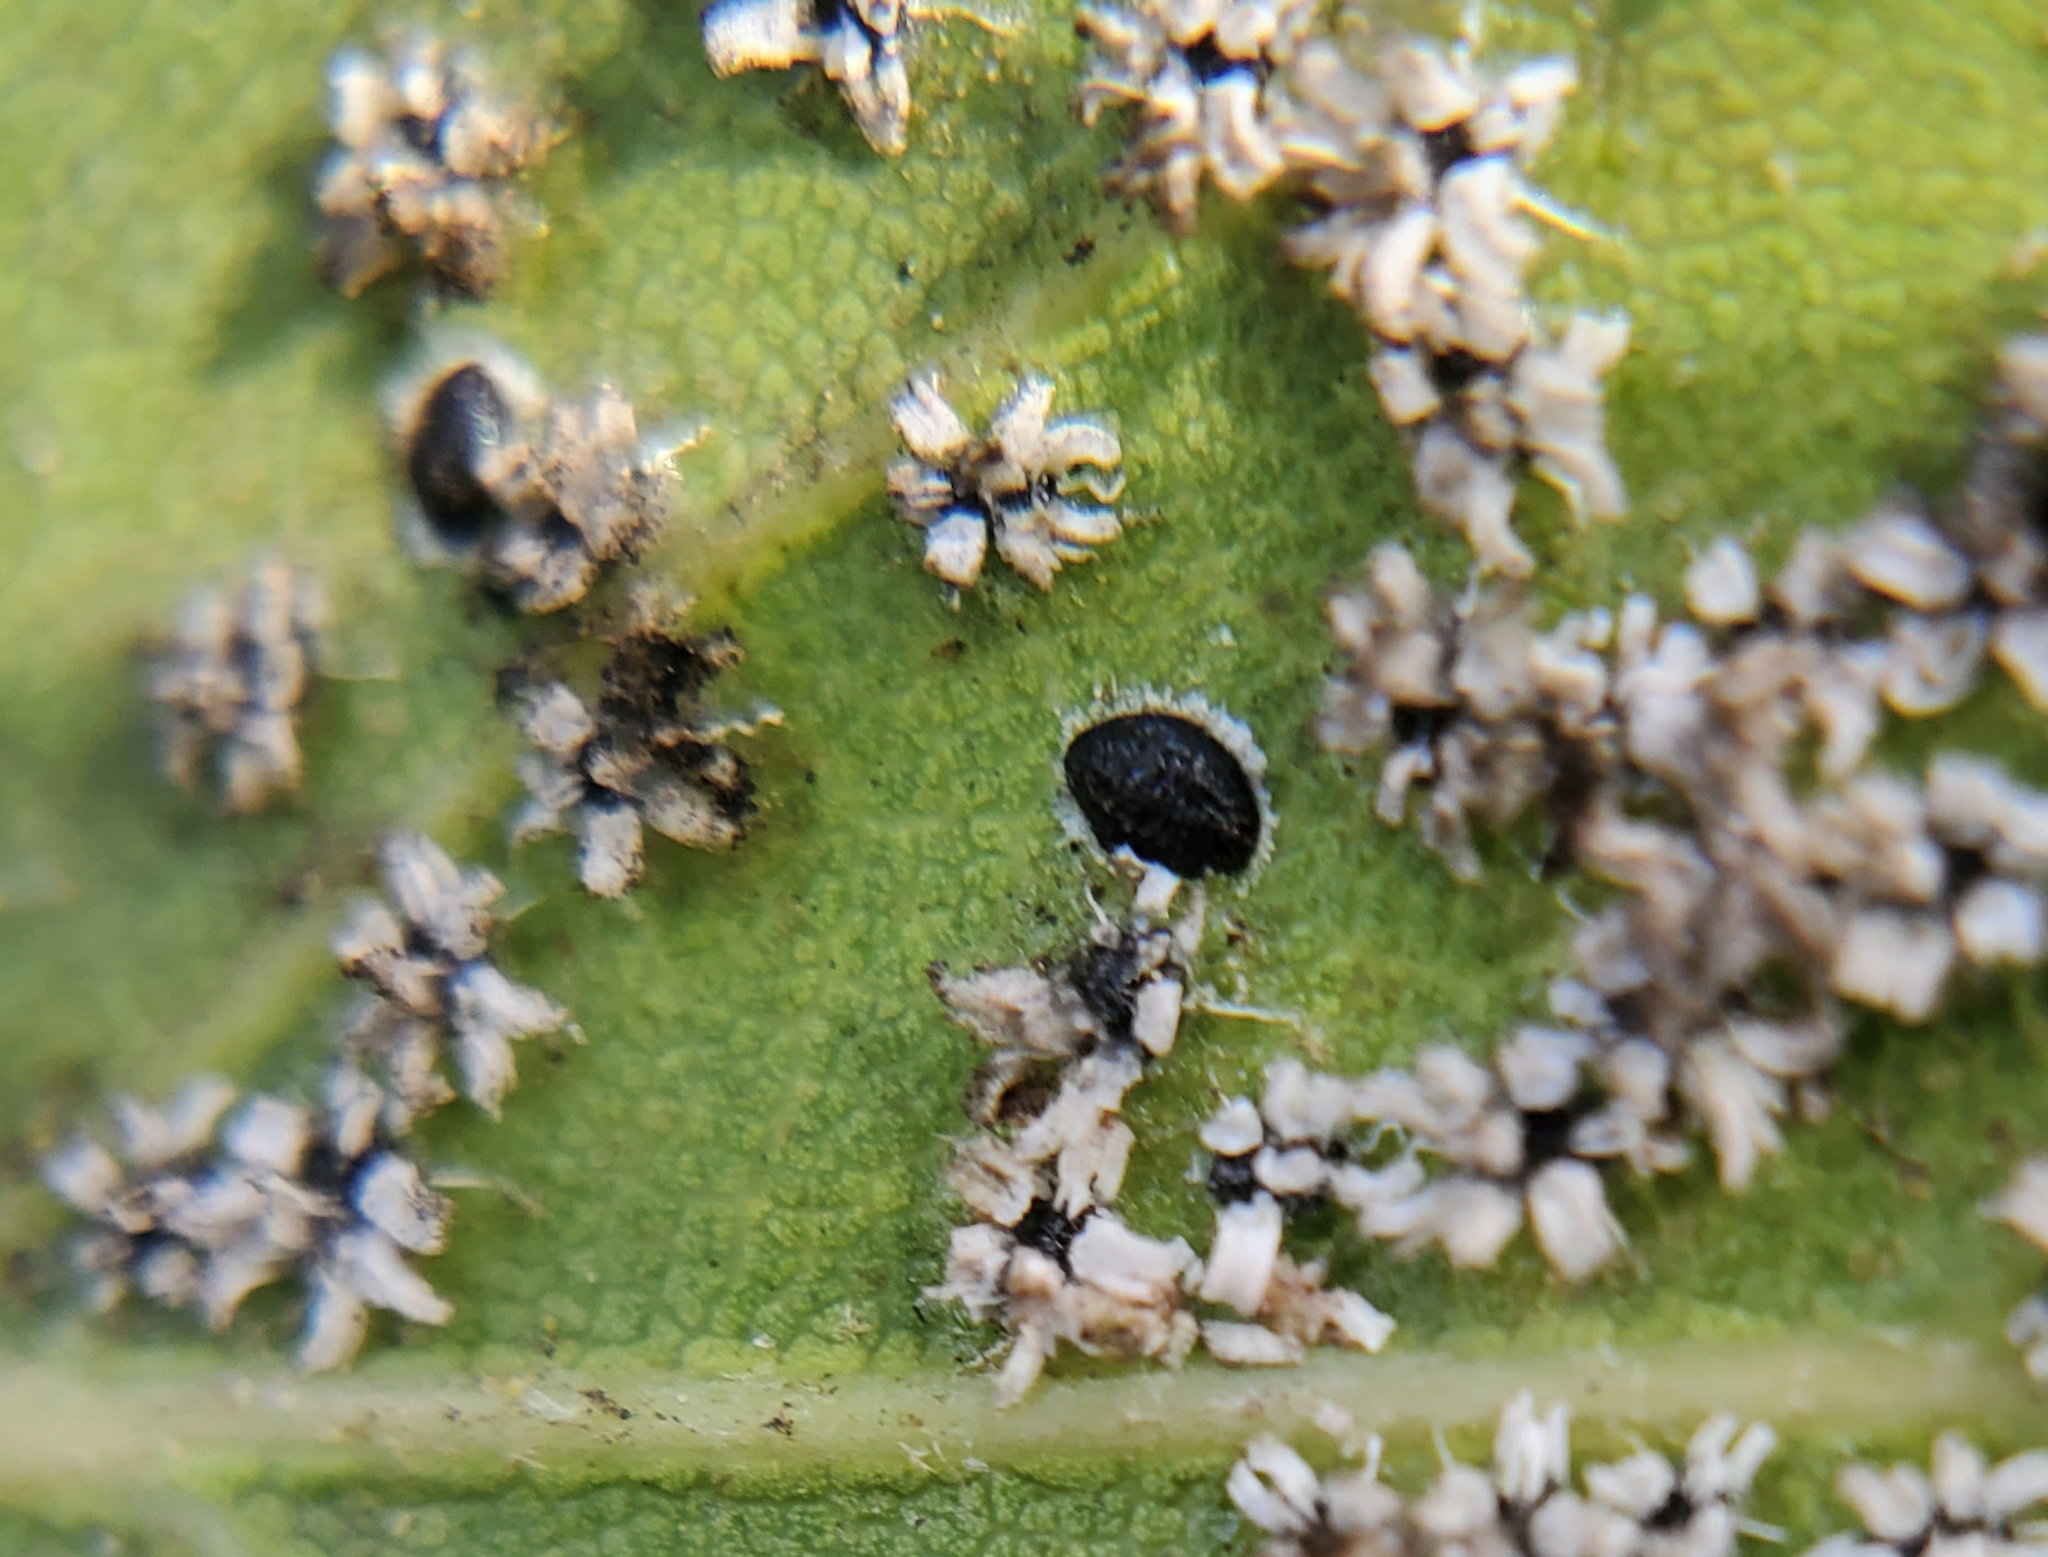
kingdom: Animalia
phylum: Arthropoda
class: Insecta
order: Hemiptera
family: Aleyrodidae
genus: Aleuroplatus
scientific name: Aleuroplatus coronata
